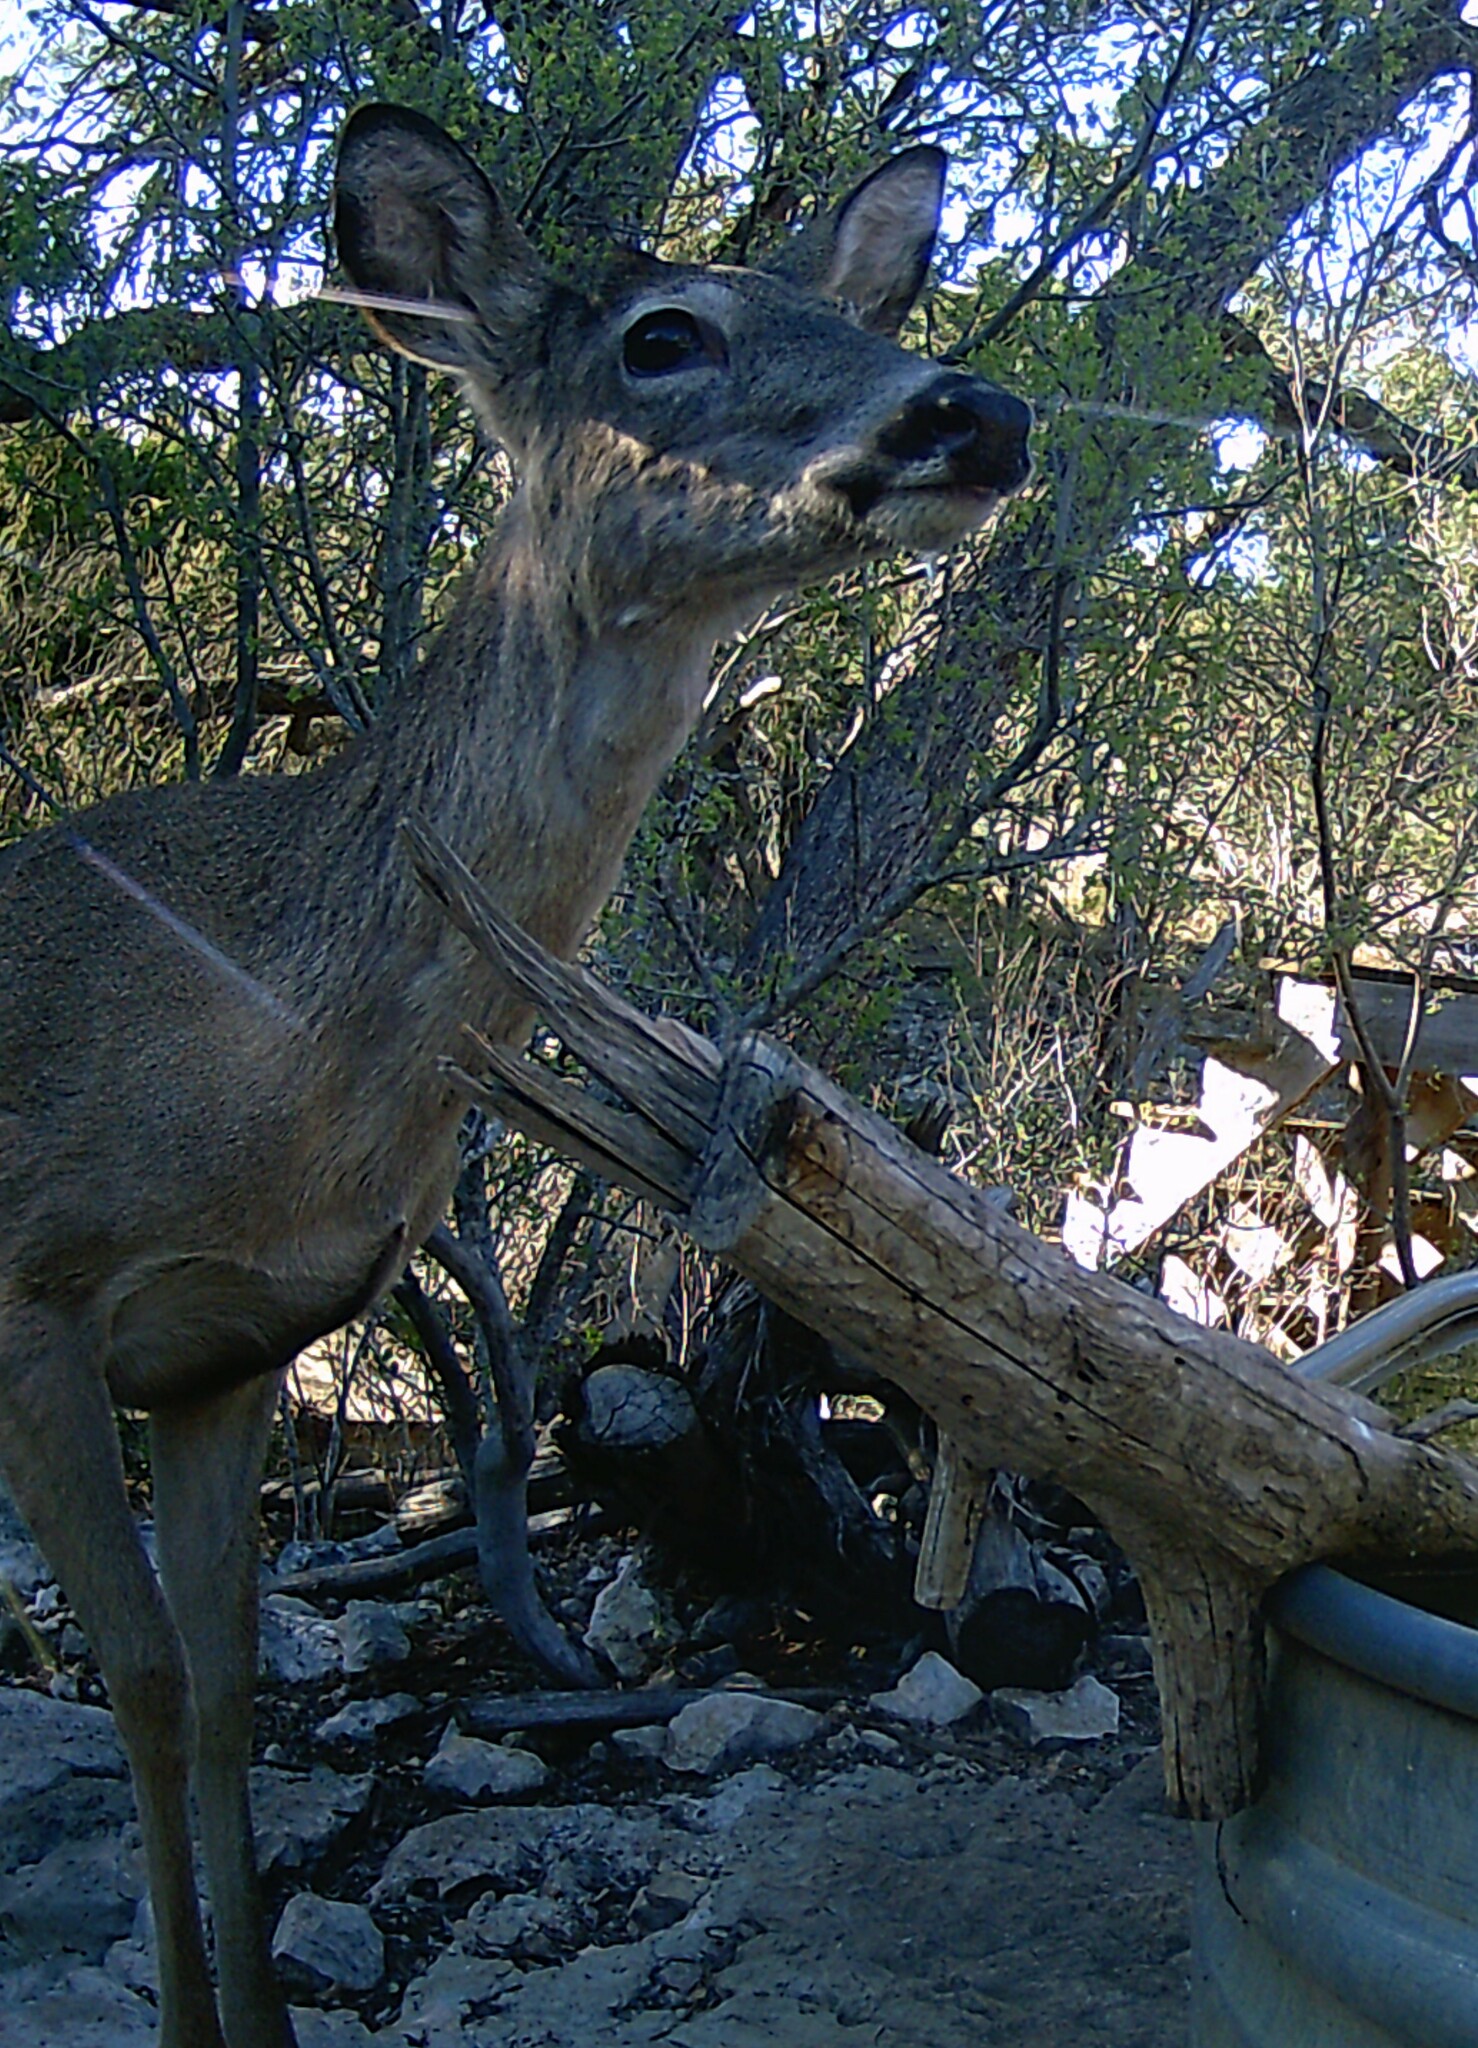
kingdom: Animalia
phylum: Chordata
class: Mammalia
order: Artiodactyla
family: Cervidae
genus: Odocoileus
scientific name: Odocoileus virginianus
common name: White-tailed deer
